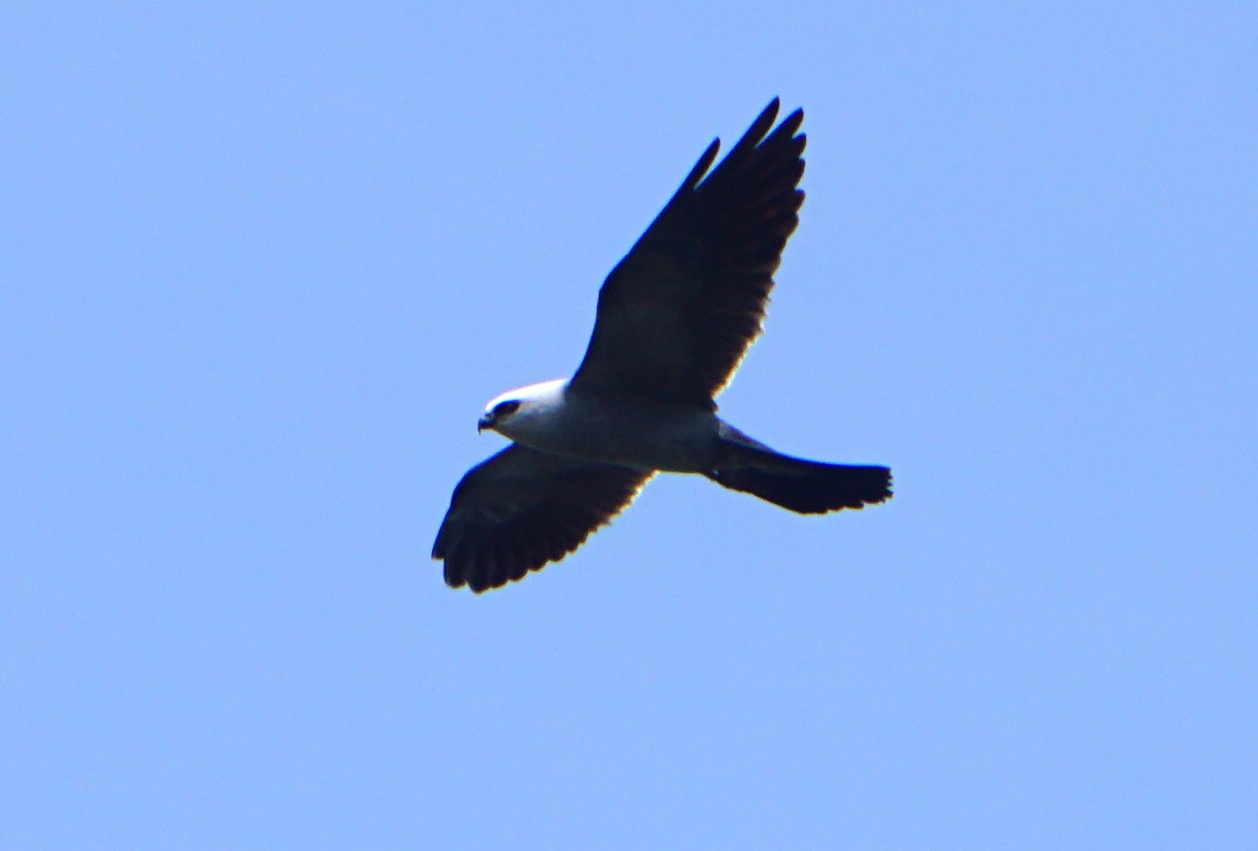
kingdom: Animalia
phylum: Chordata
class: Aves
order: Accipitriformes
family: Accipitridae
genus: Ictinia
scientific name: Ictinia mississippiensis
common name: Mississippi kite
